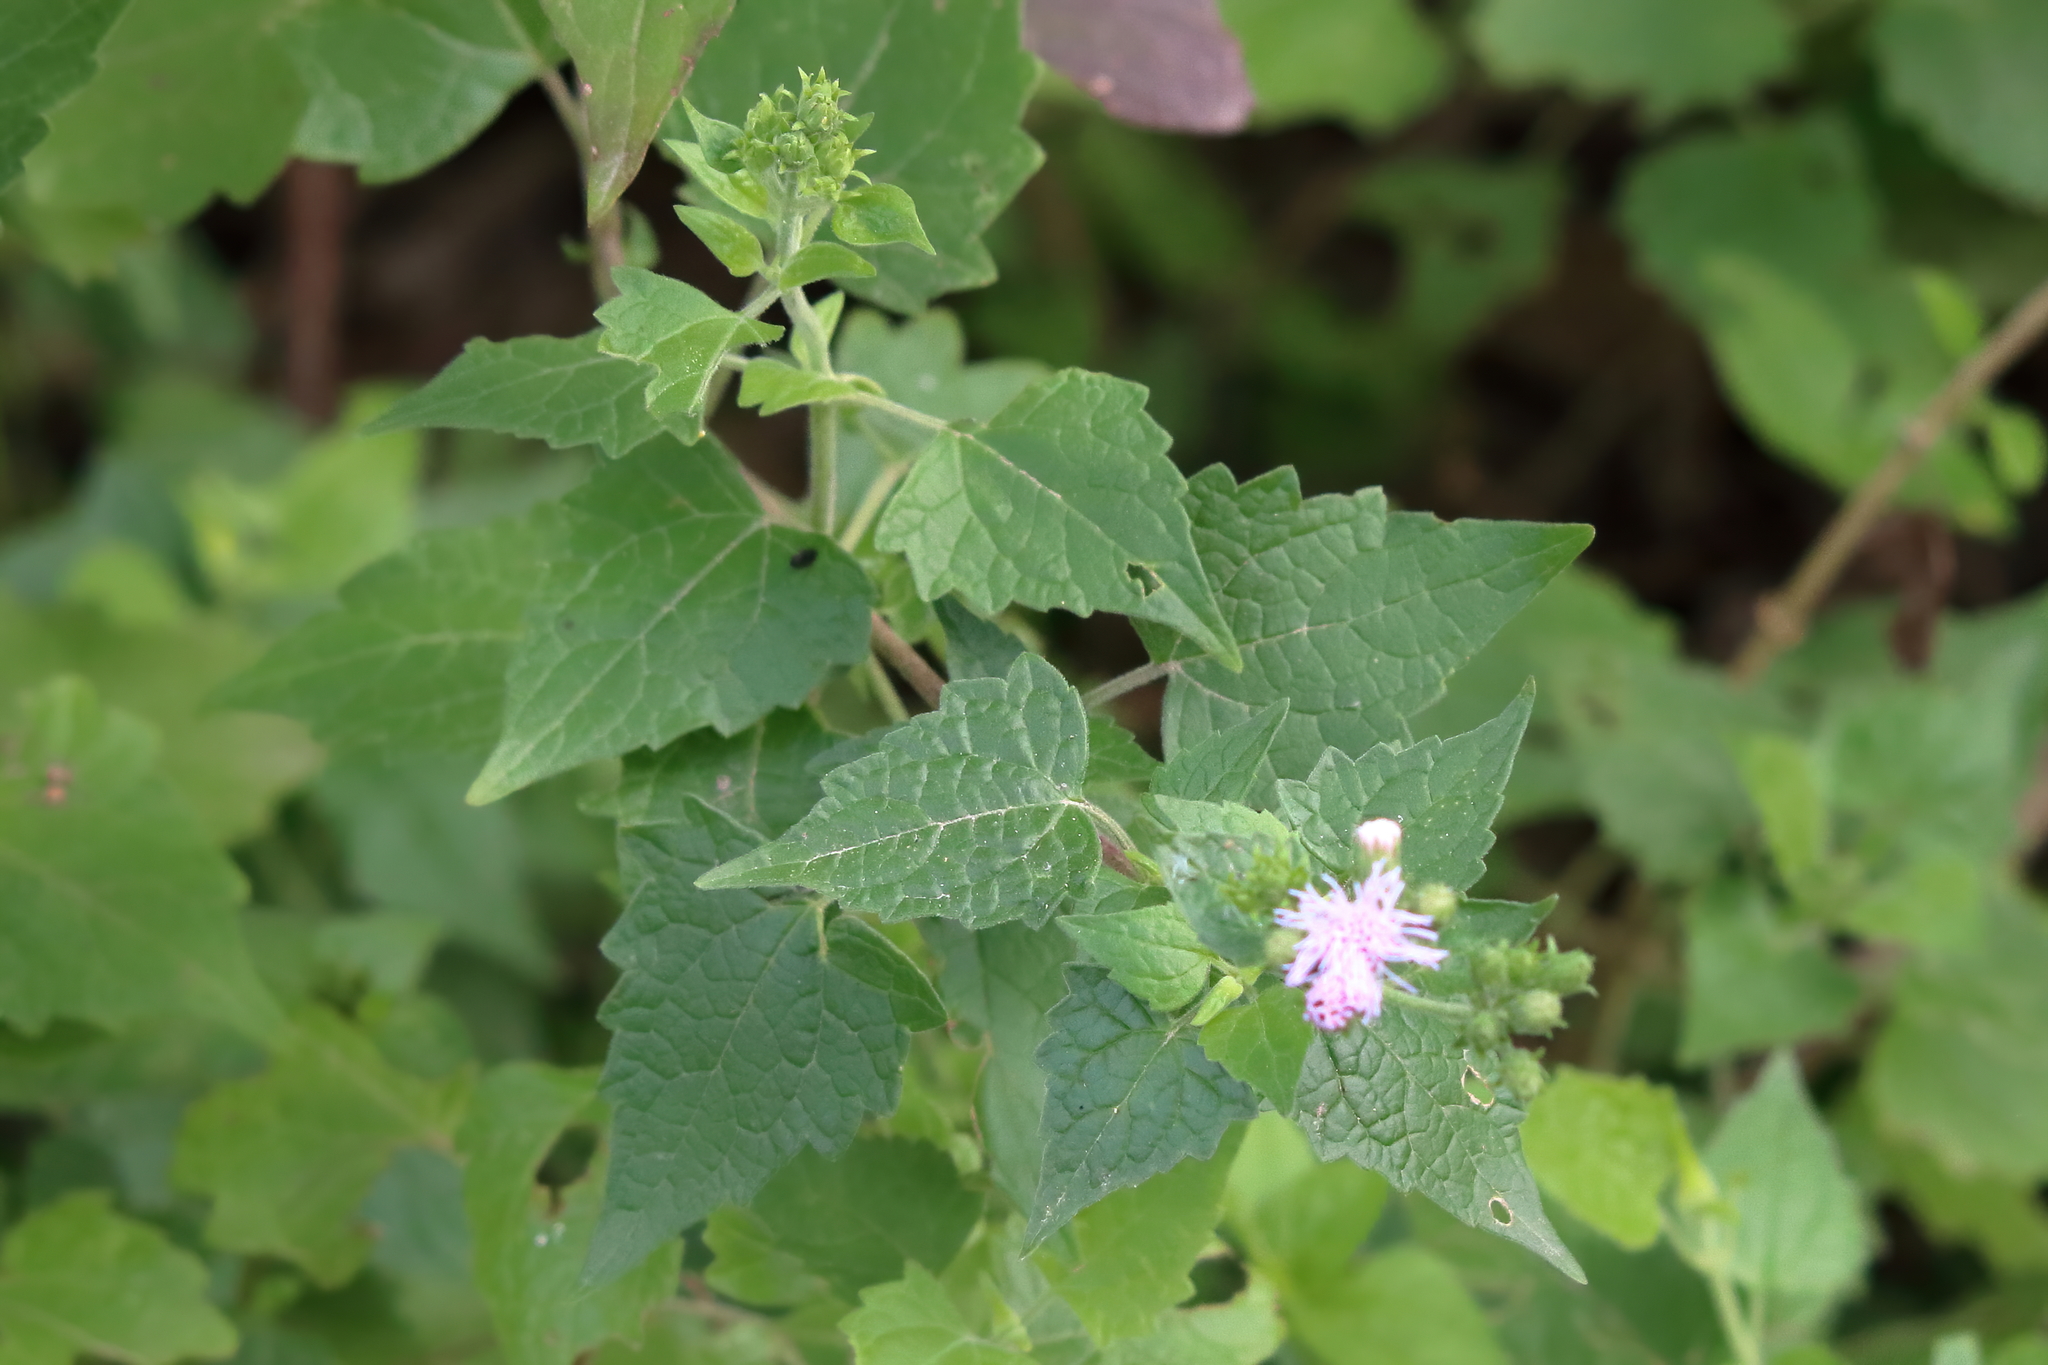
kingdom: Plantae
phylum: Tracheophyta
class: Magnoliopsida
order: Asterales
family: Asteraceae
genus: Tamaulipa
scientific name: Tamaulipa azurea
